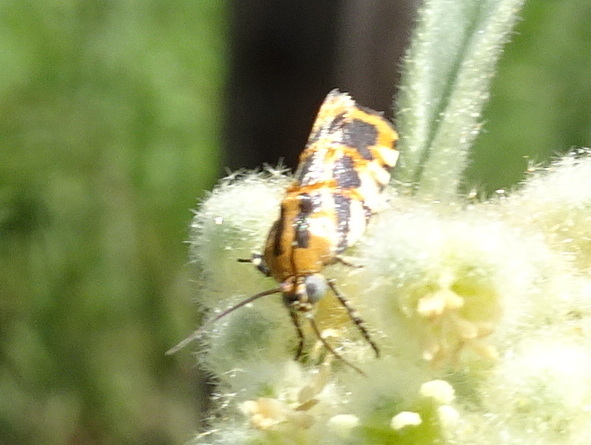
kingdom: Animalia
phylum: Arthropoda
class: Insecta
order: Lepidoptera
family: Noctuidae
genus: Acontia
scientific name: Acontia leo
